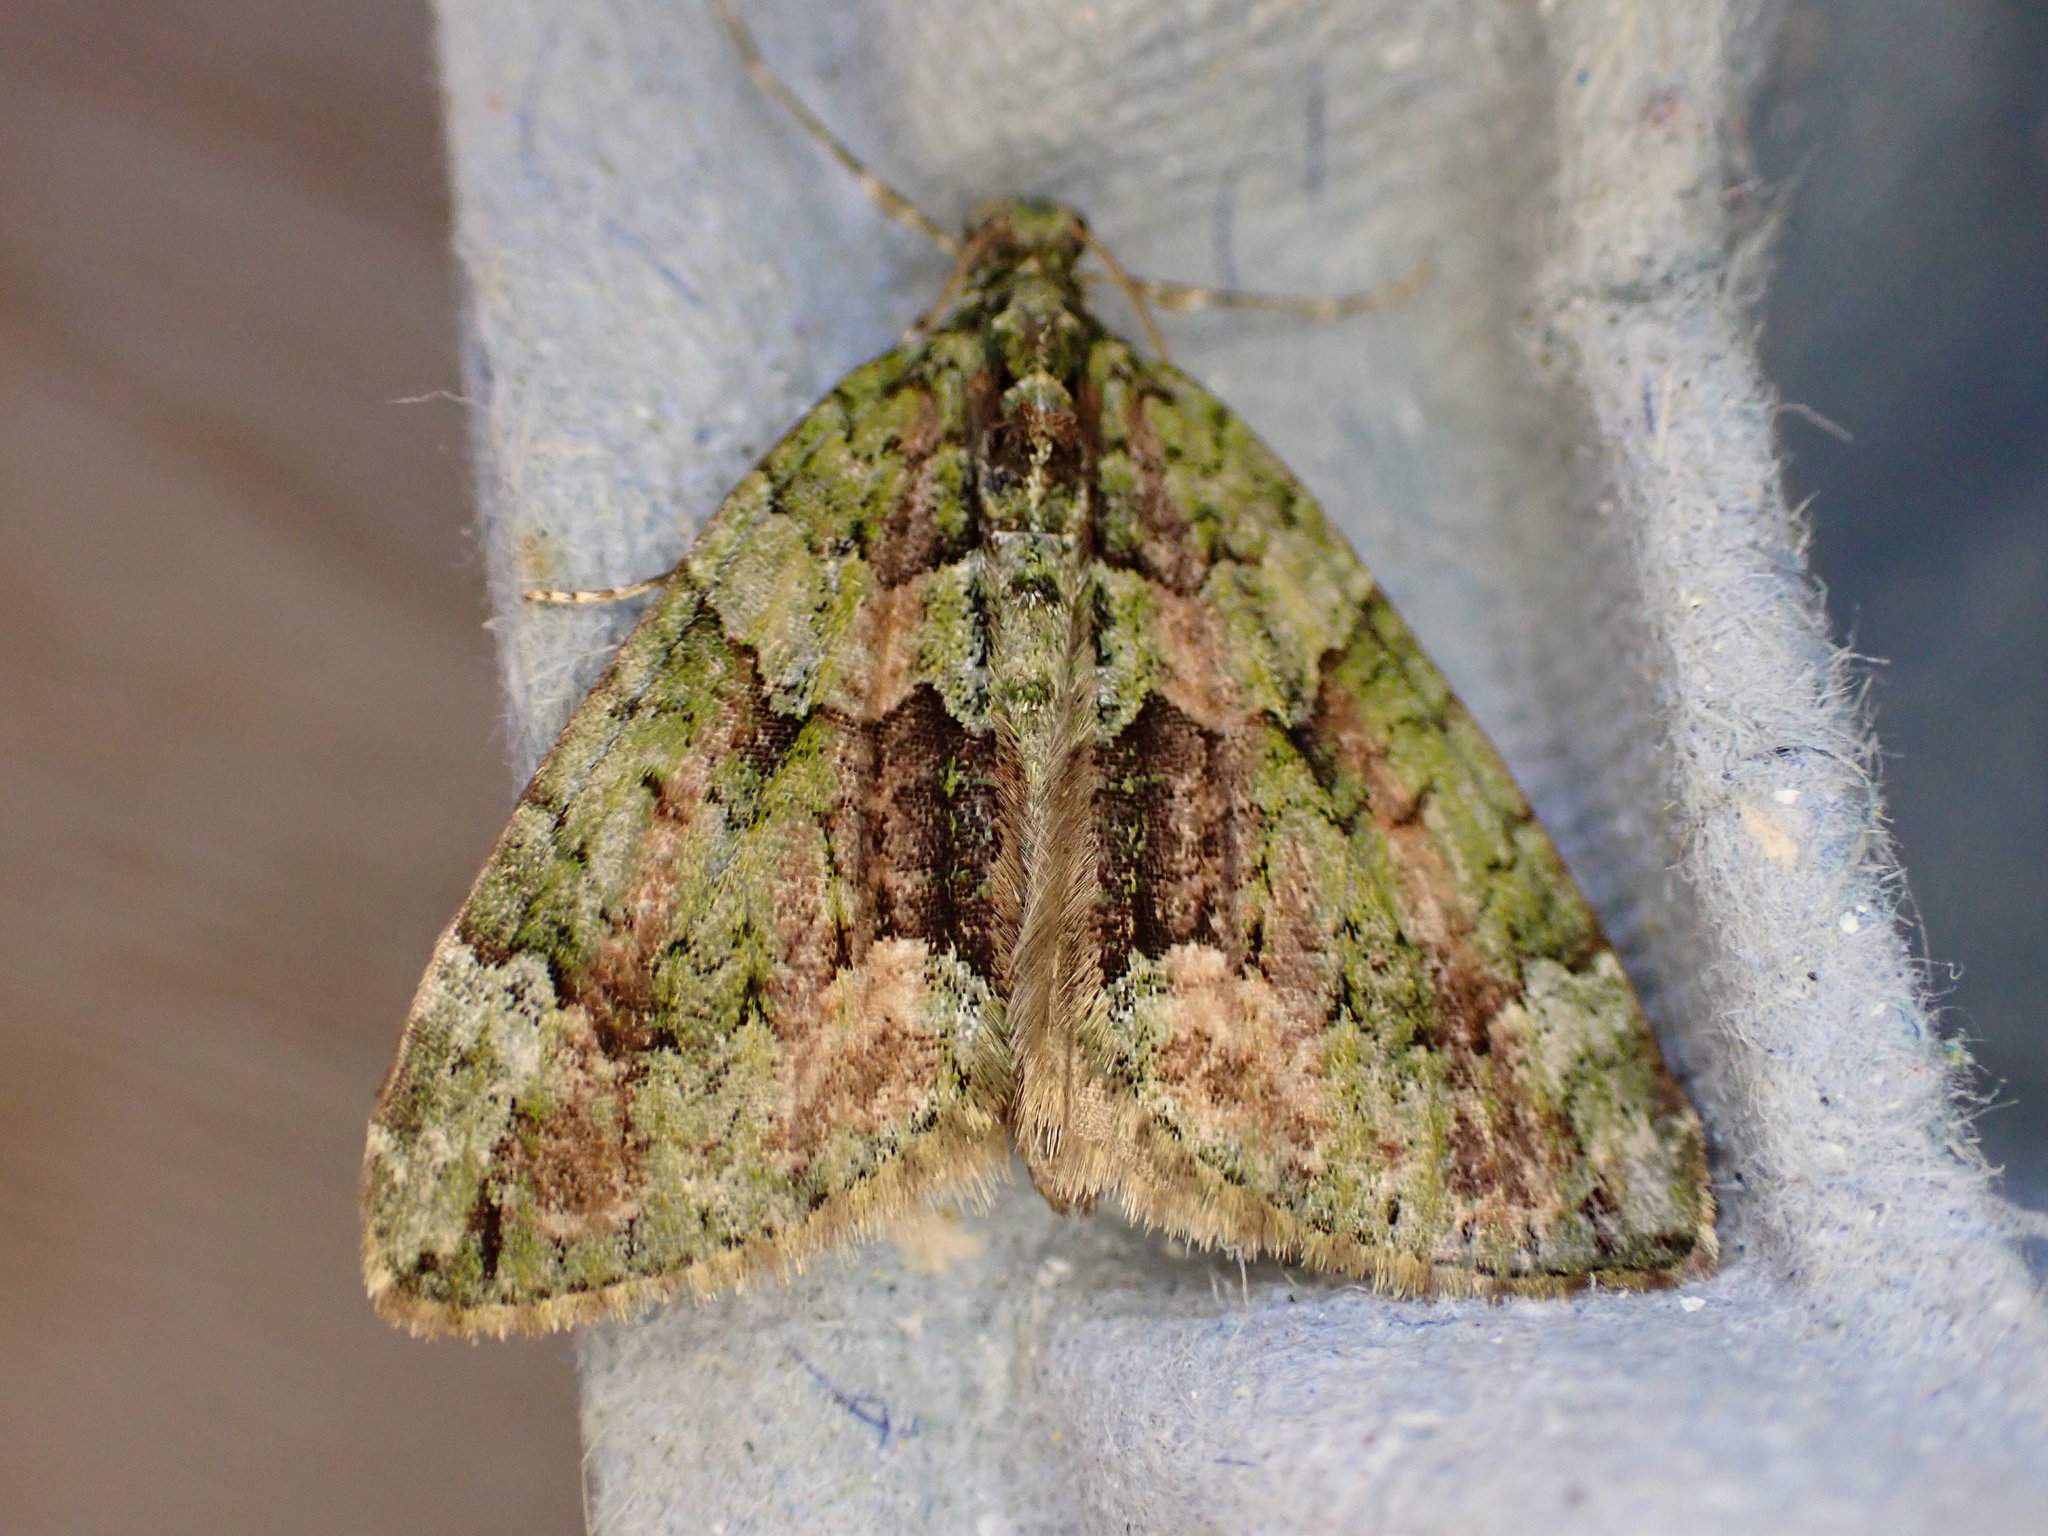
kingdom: Animalia
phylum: Arthropoda
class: Insecta
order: Lepidoptera
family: Geometridae
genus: Chloroclysta
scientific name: Chloroclysta siterata
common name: Red-green carpet
